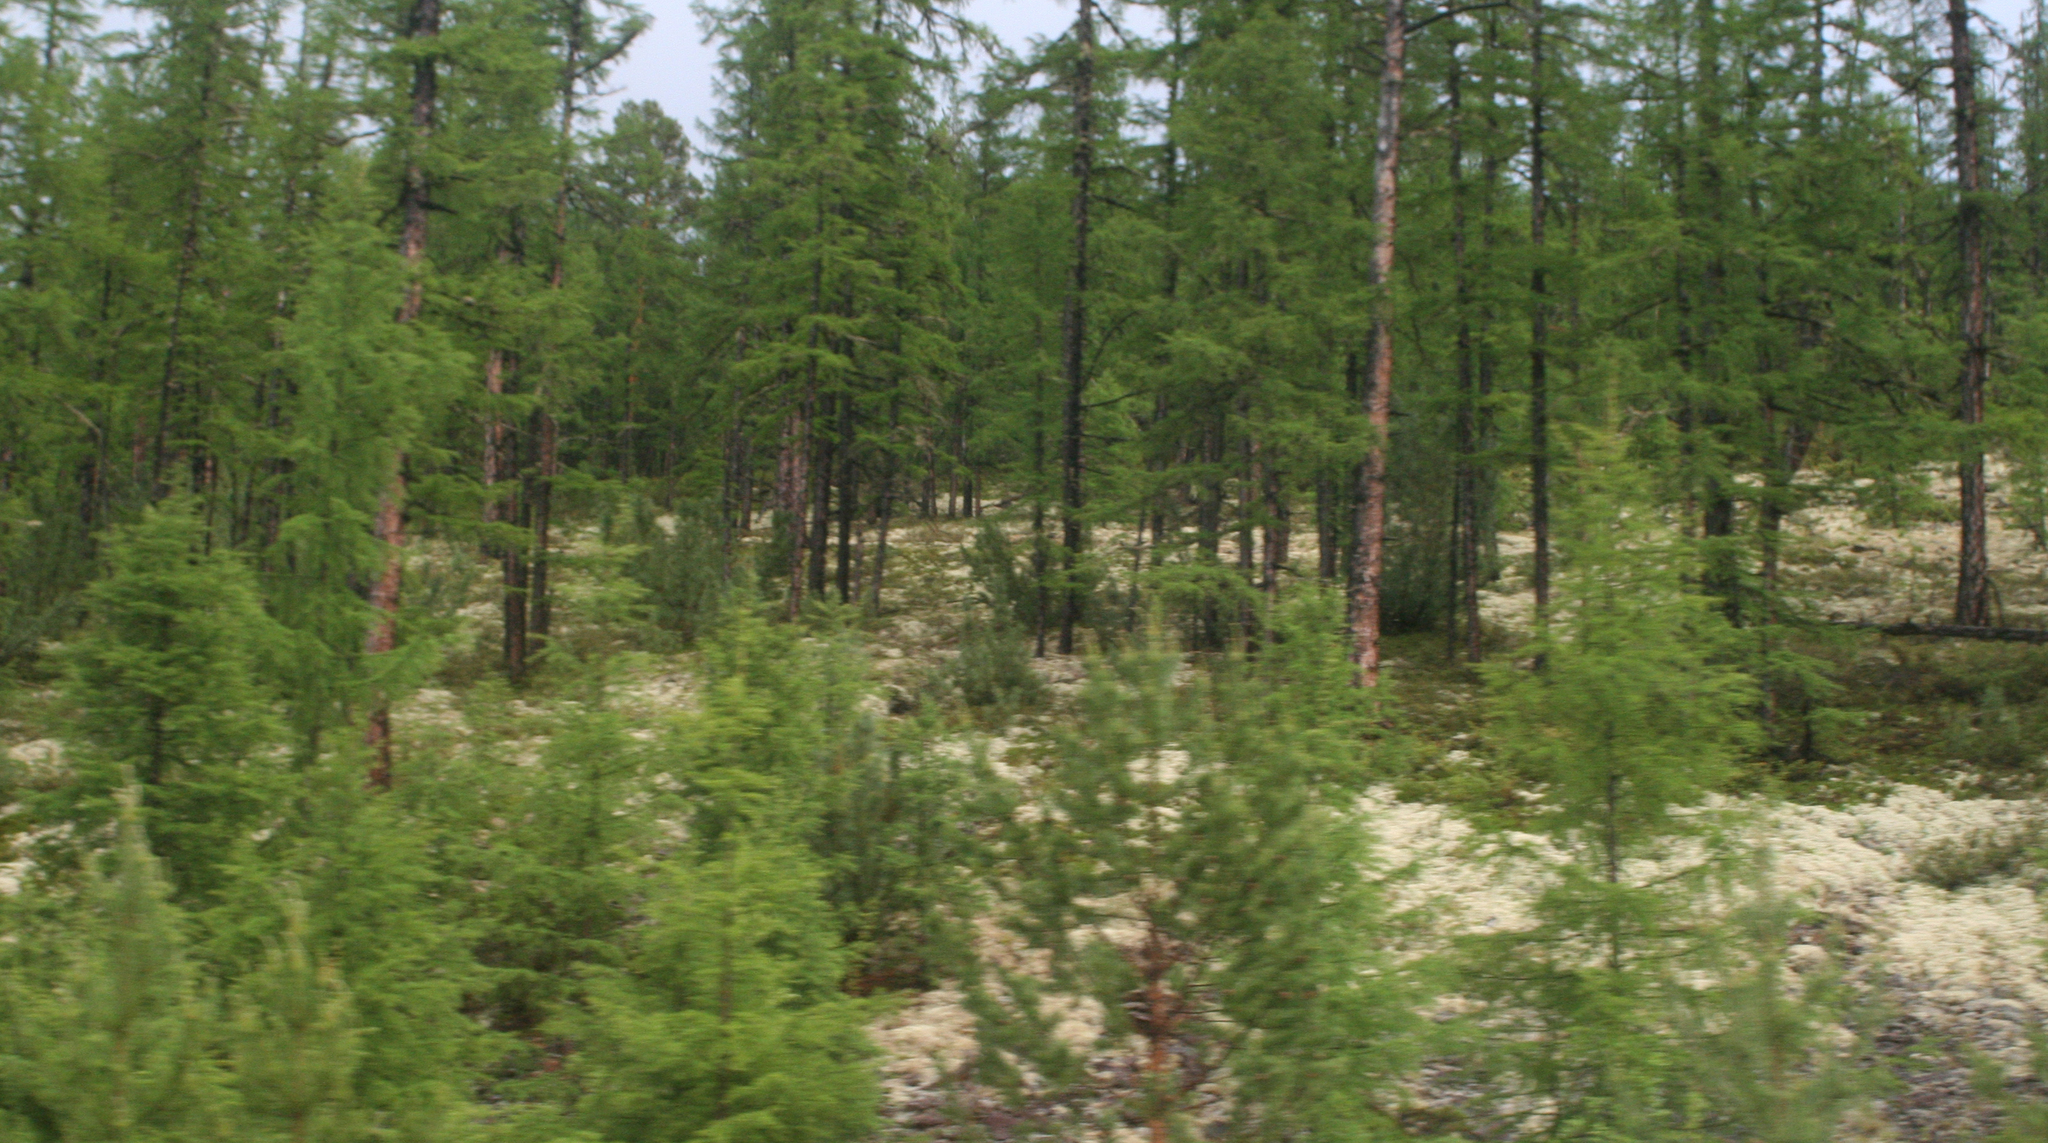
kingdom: Plantae
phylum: Tracheophyta
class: Pinopsida
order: Pinales
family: Pinaceae
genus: Larix
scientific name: Larix gmelinii
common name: Dahurian larch
